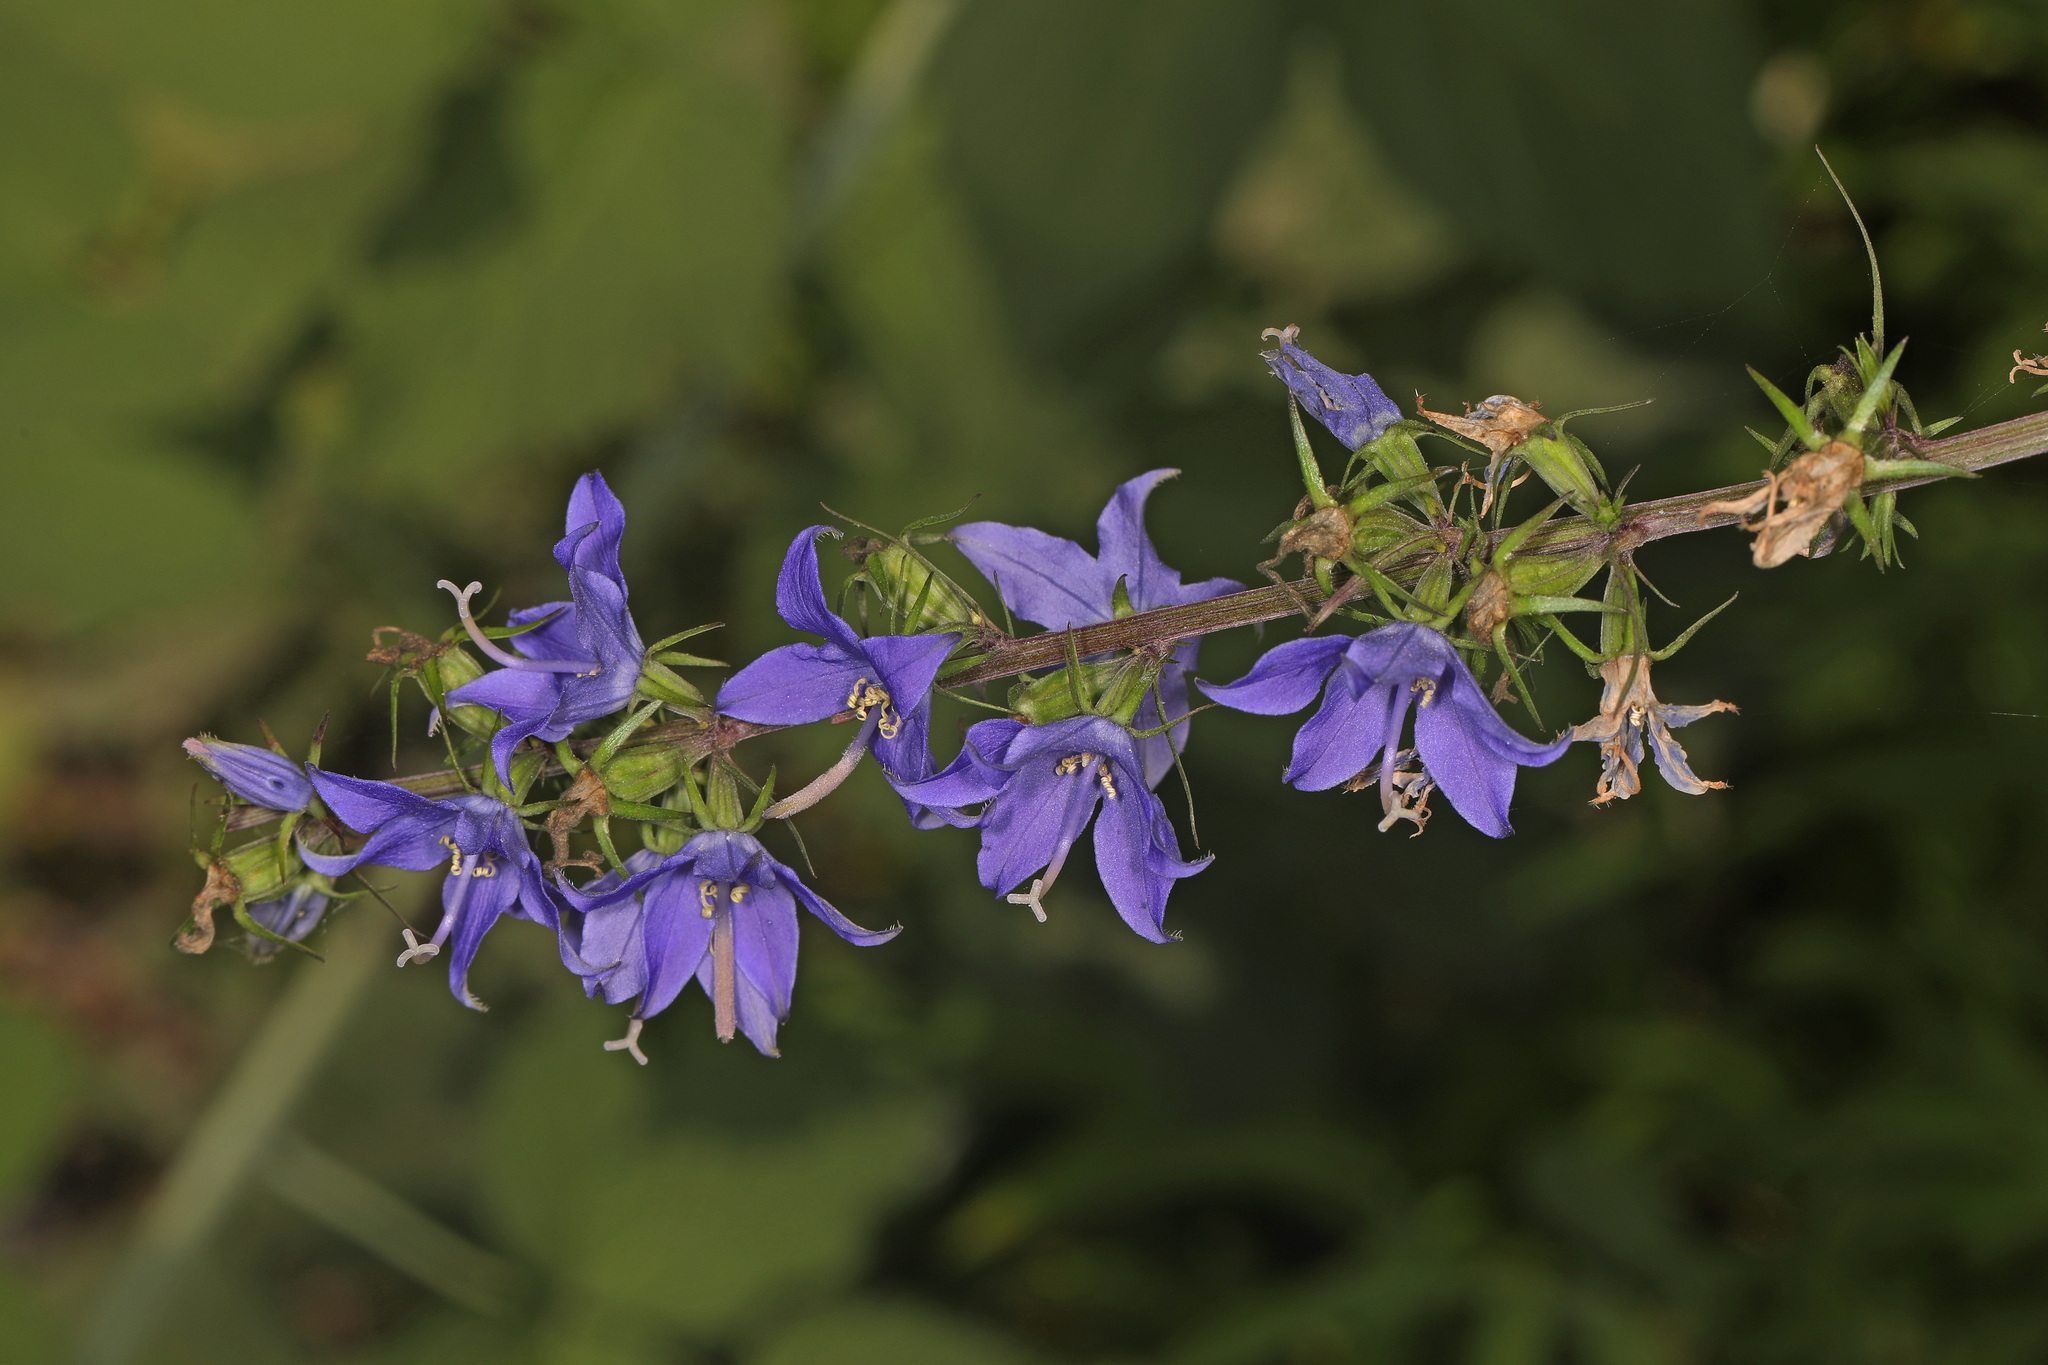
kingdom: Plantae
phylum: Tracheophyta
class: Magnoliopsida
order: Asterales
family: Campanulaceae
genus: Campanulastrum
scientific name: Campanulastrum americanum
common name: American bellflower
